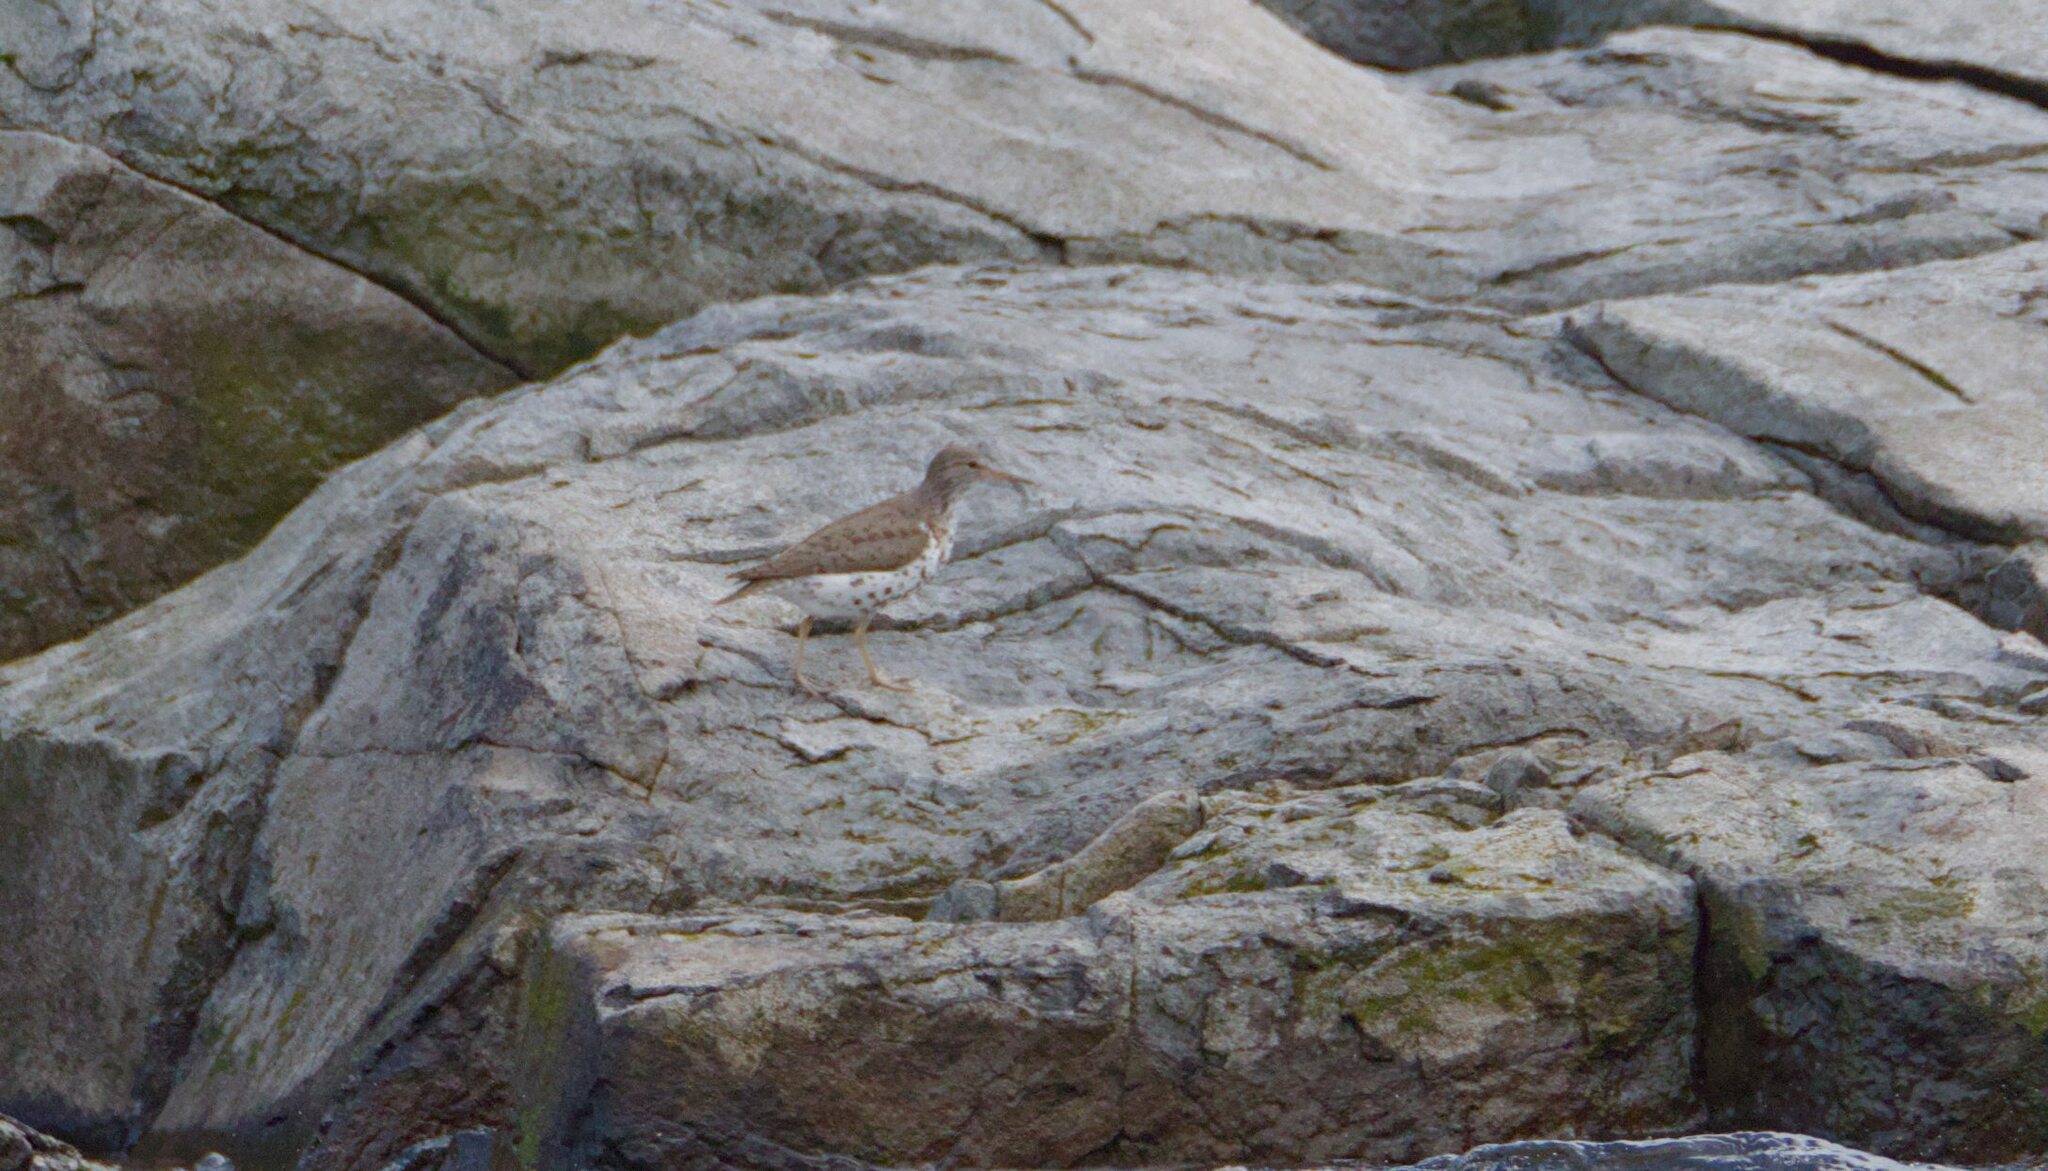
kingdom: Animalia
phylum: Chordata
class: Aves
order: Charadriiformes
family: Scolopacidae
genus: Actitis
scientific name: Actitis macularius
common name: Spotted sandpiper
